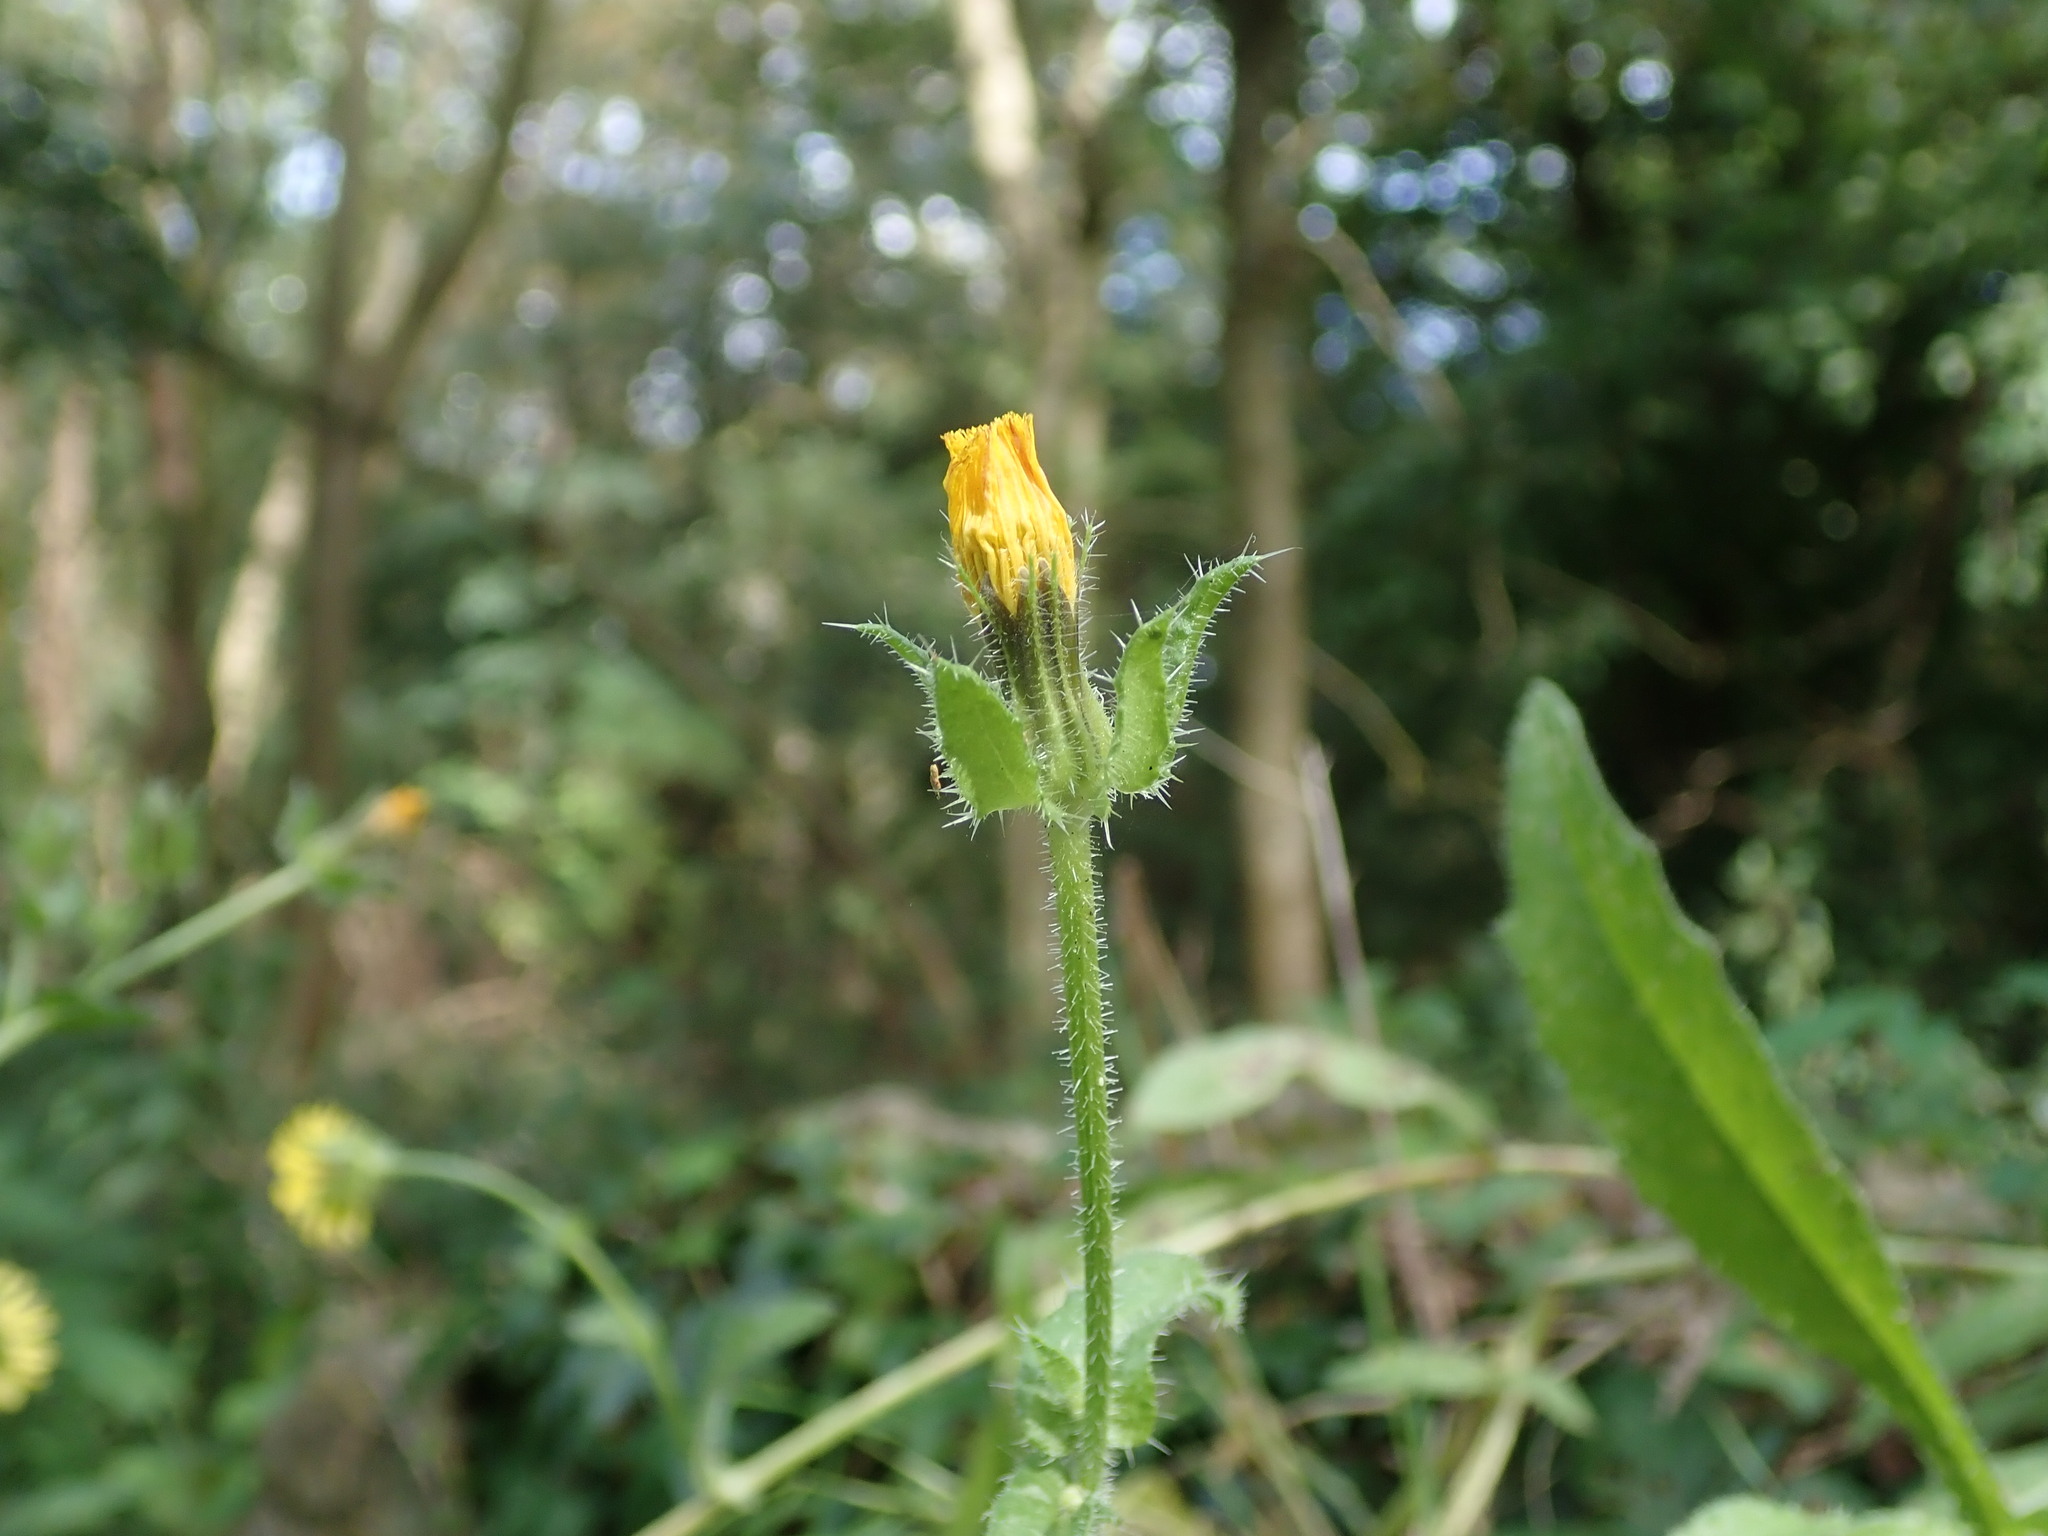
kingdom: Plantae
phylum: Tracheophyta
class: Magnoliopsida
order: Asterales
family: Asteraceae
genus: Helminthotheca
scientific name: Helminthotheca echioides
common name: Ox-tongue
